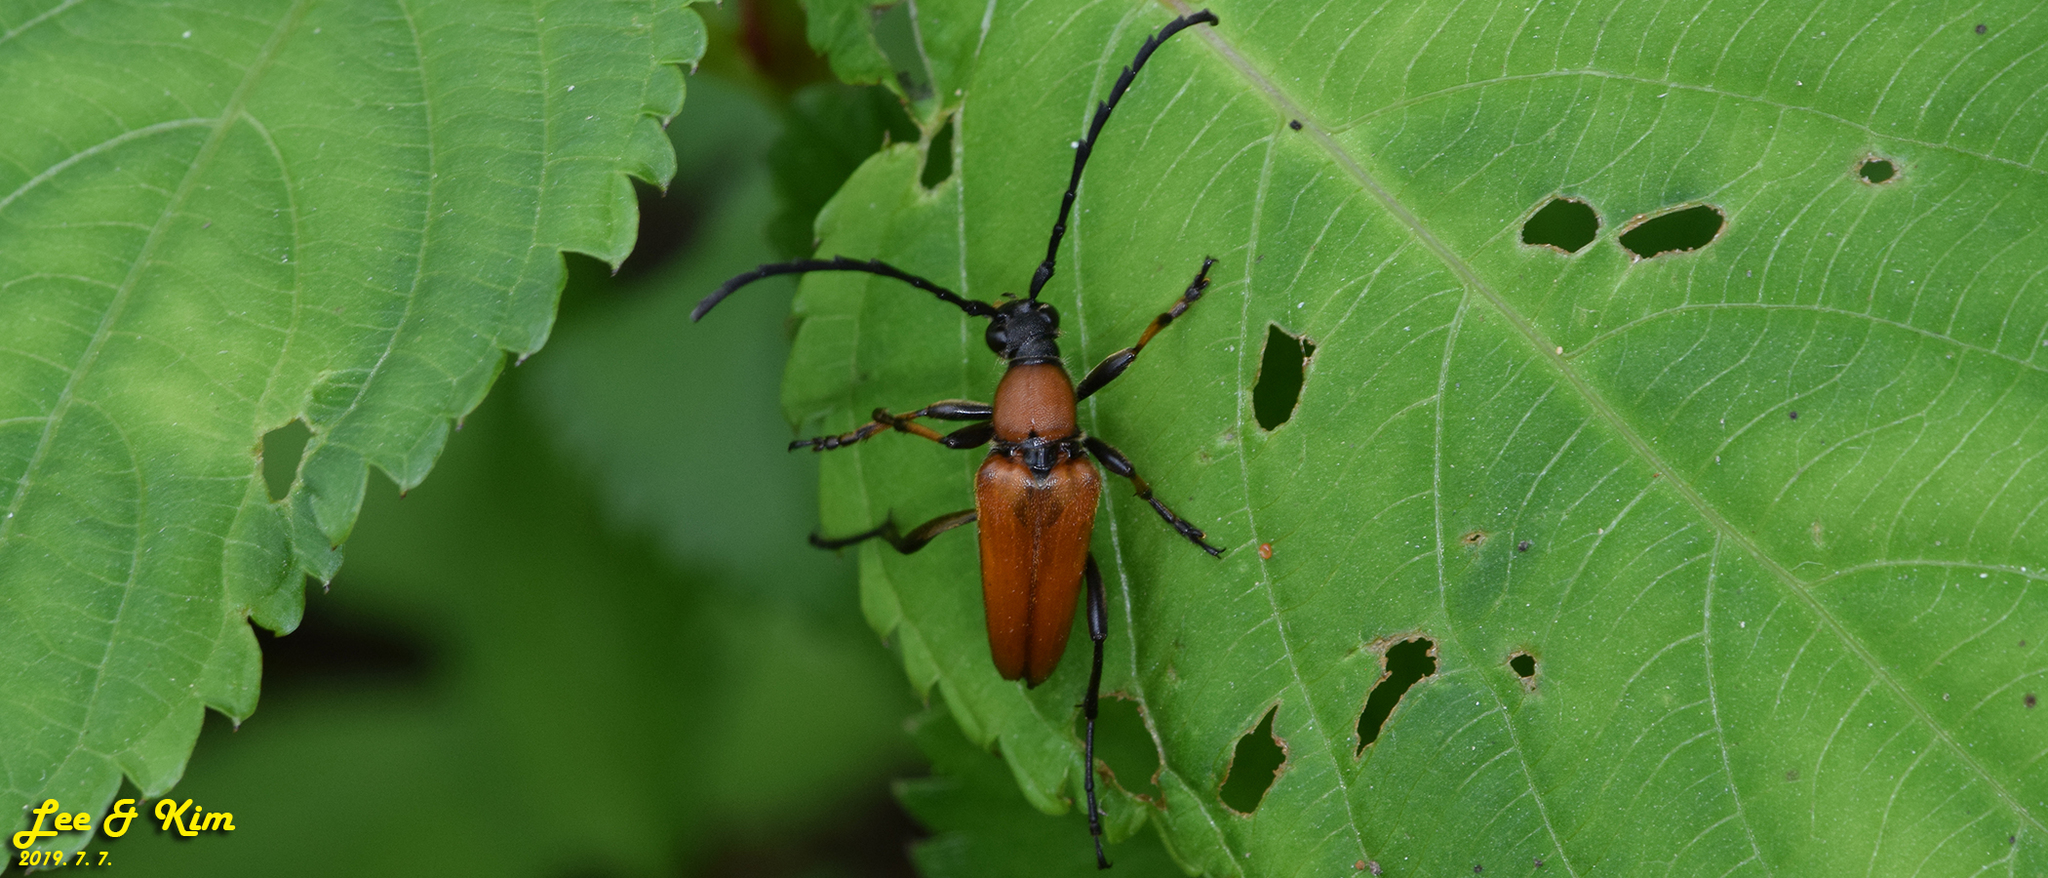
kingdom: Animalia
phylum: Arthropoda
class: Insecta
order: Coleoptera
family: Cerambycidae
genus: Stictoleptura
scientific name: Stictoleptura dichroa
